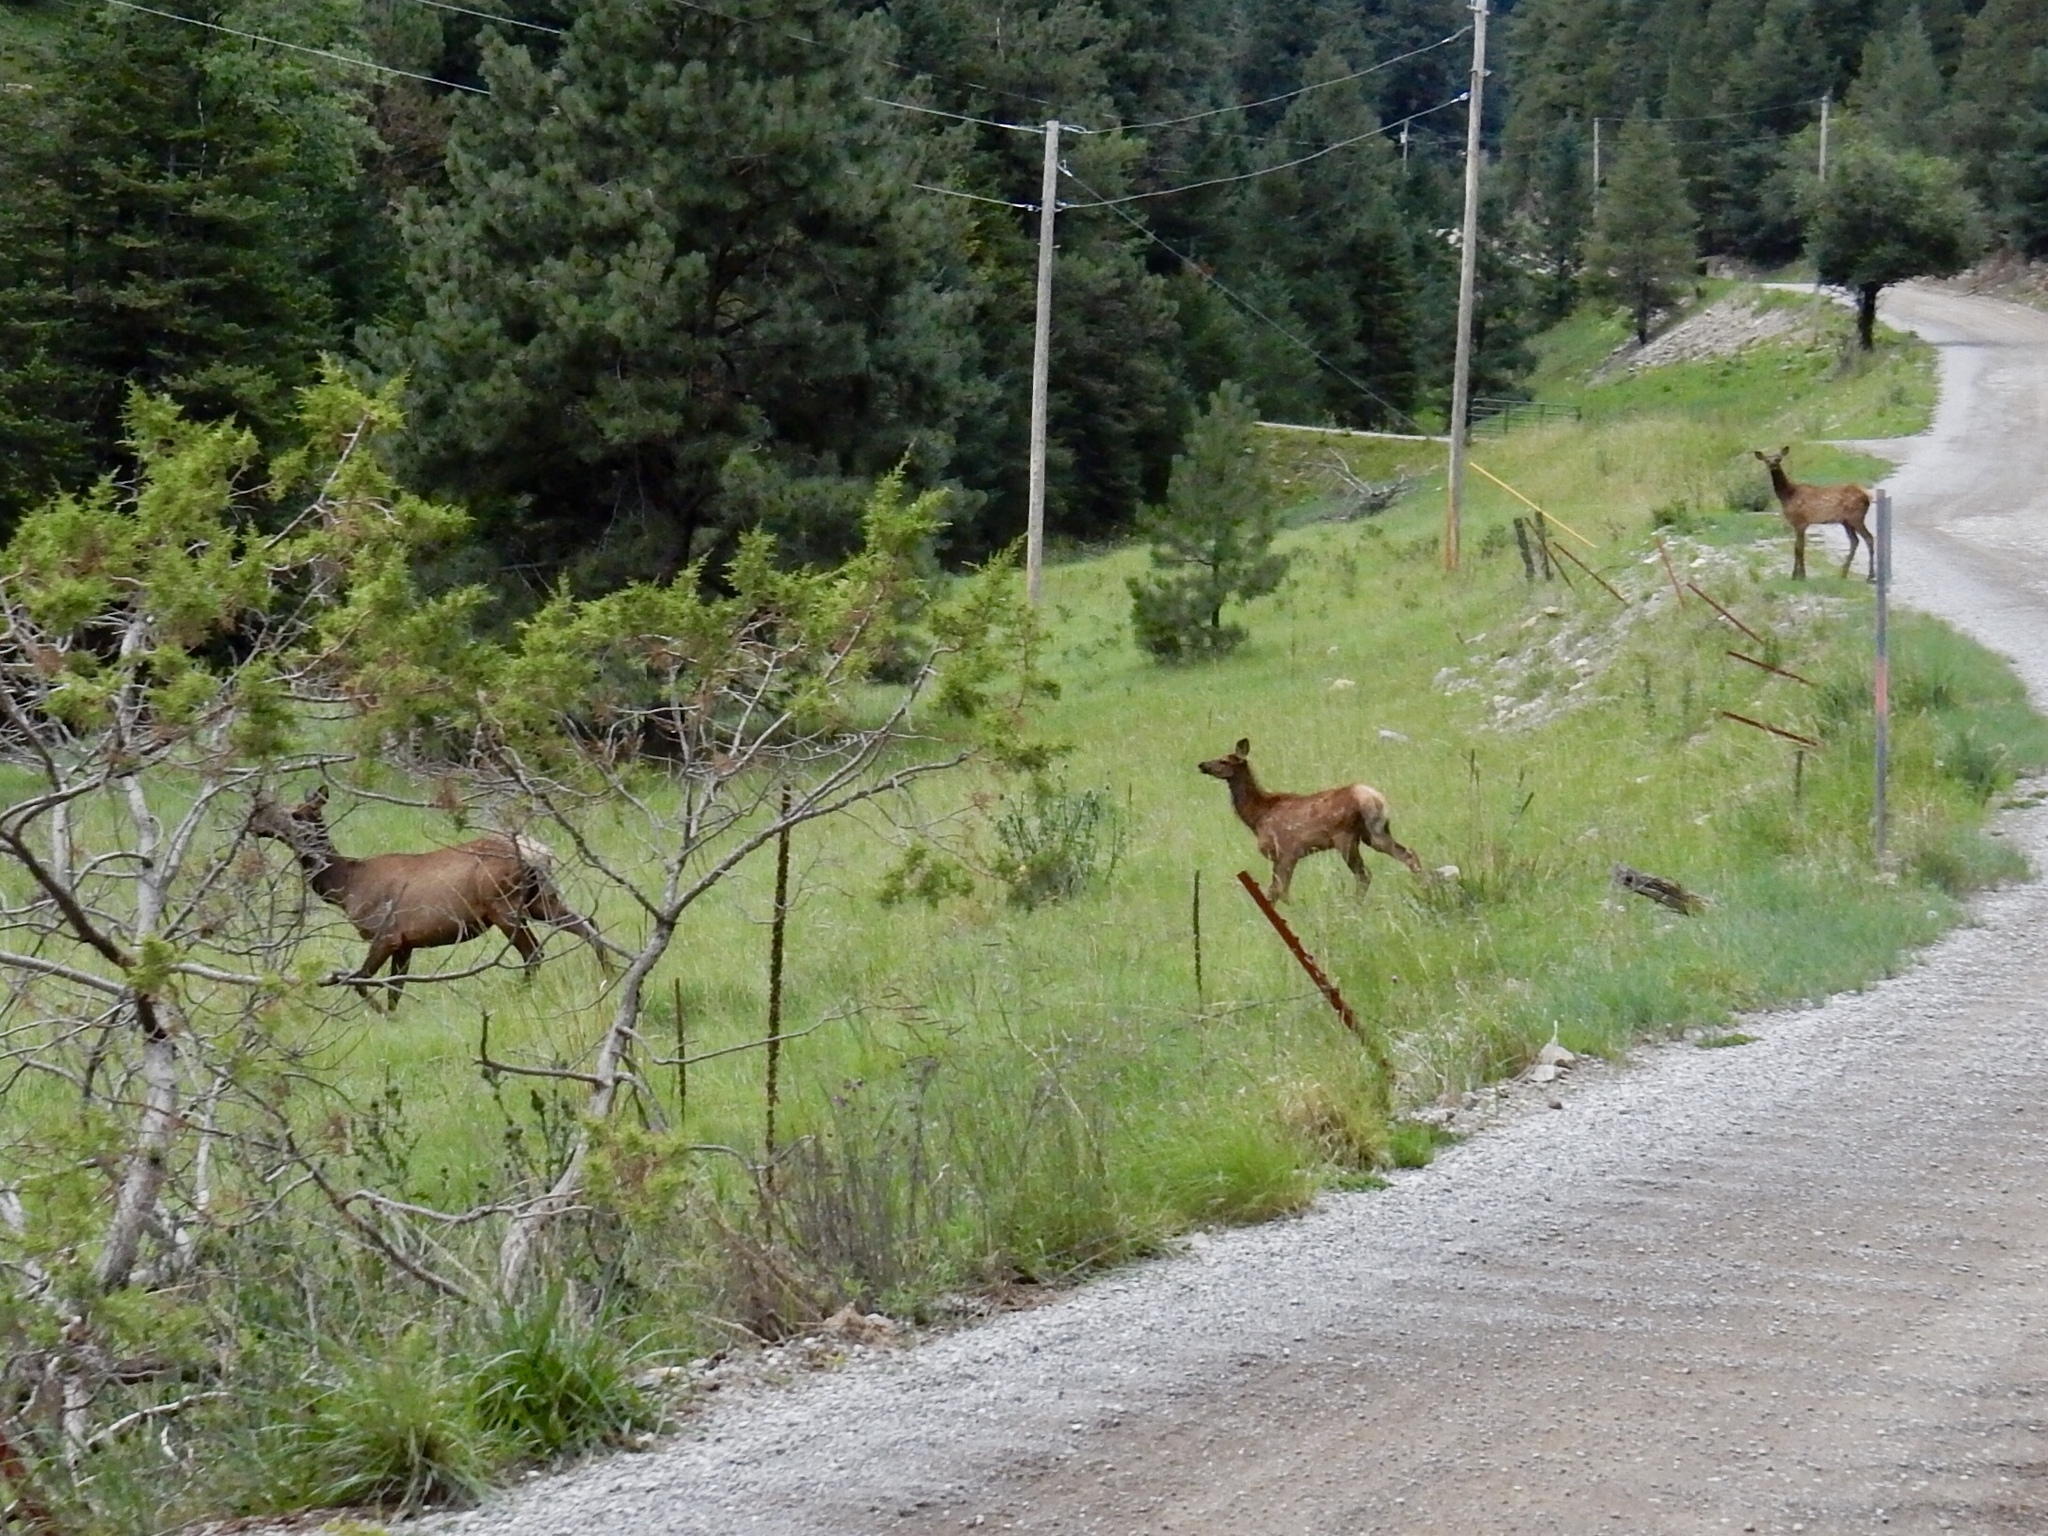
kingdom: Animalia
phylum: Chordata
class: Mammalia
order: Artiodactyla
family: Cervidae
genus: Cervus
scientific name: Cervus elaphus
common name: Red deer
